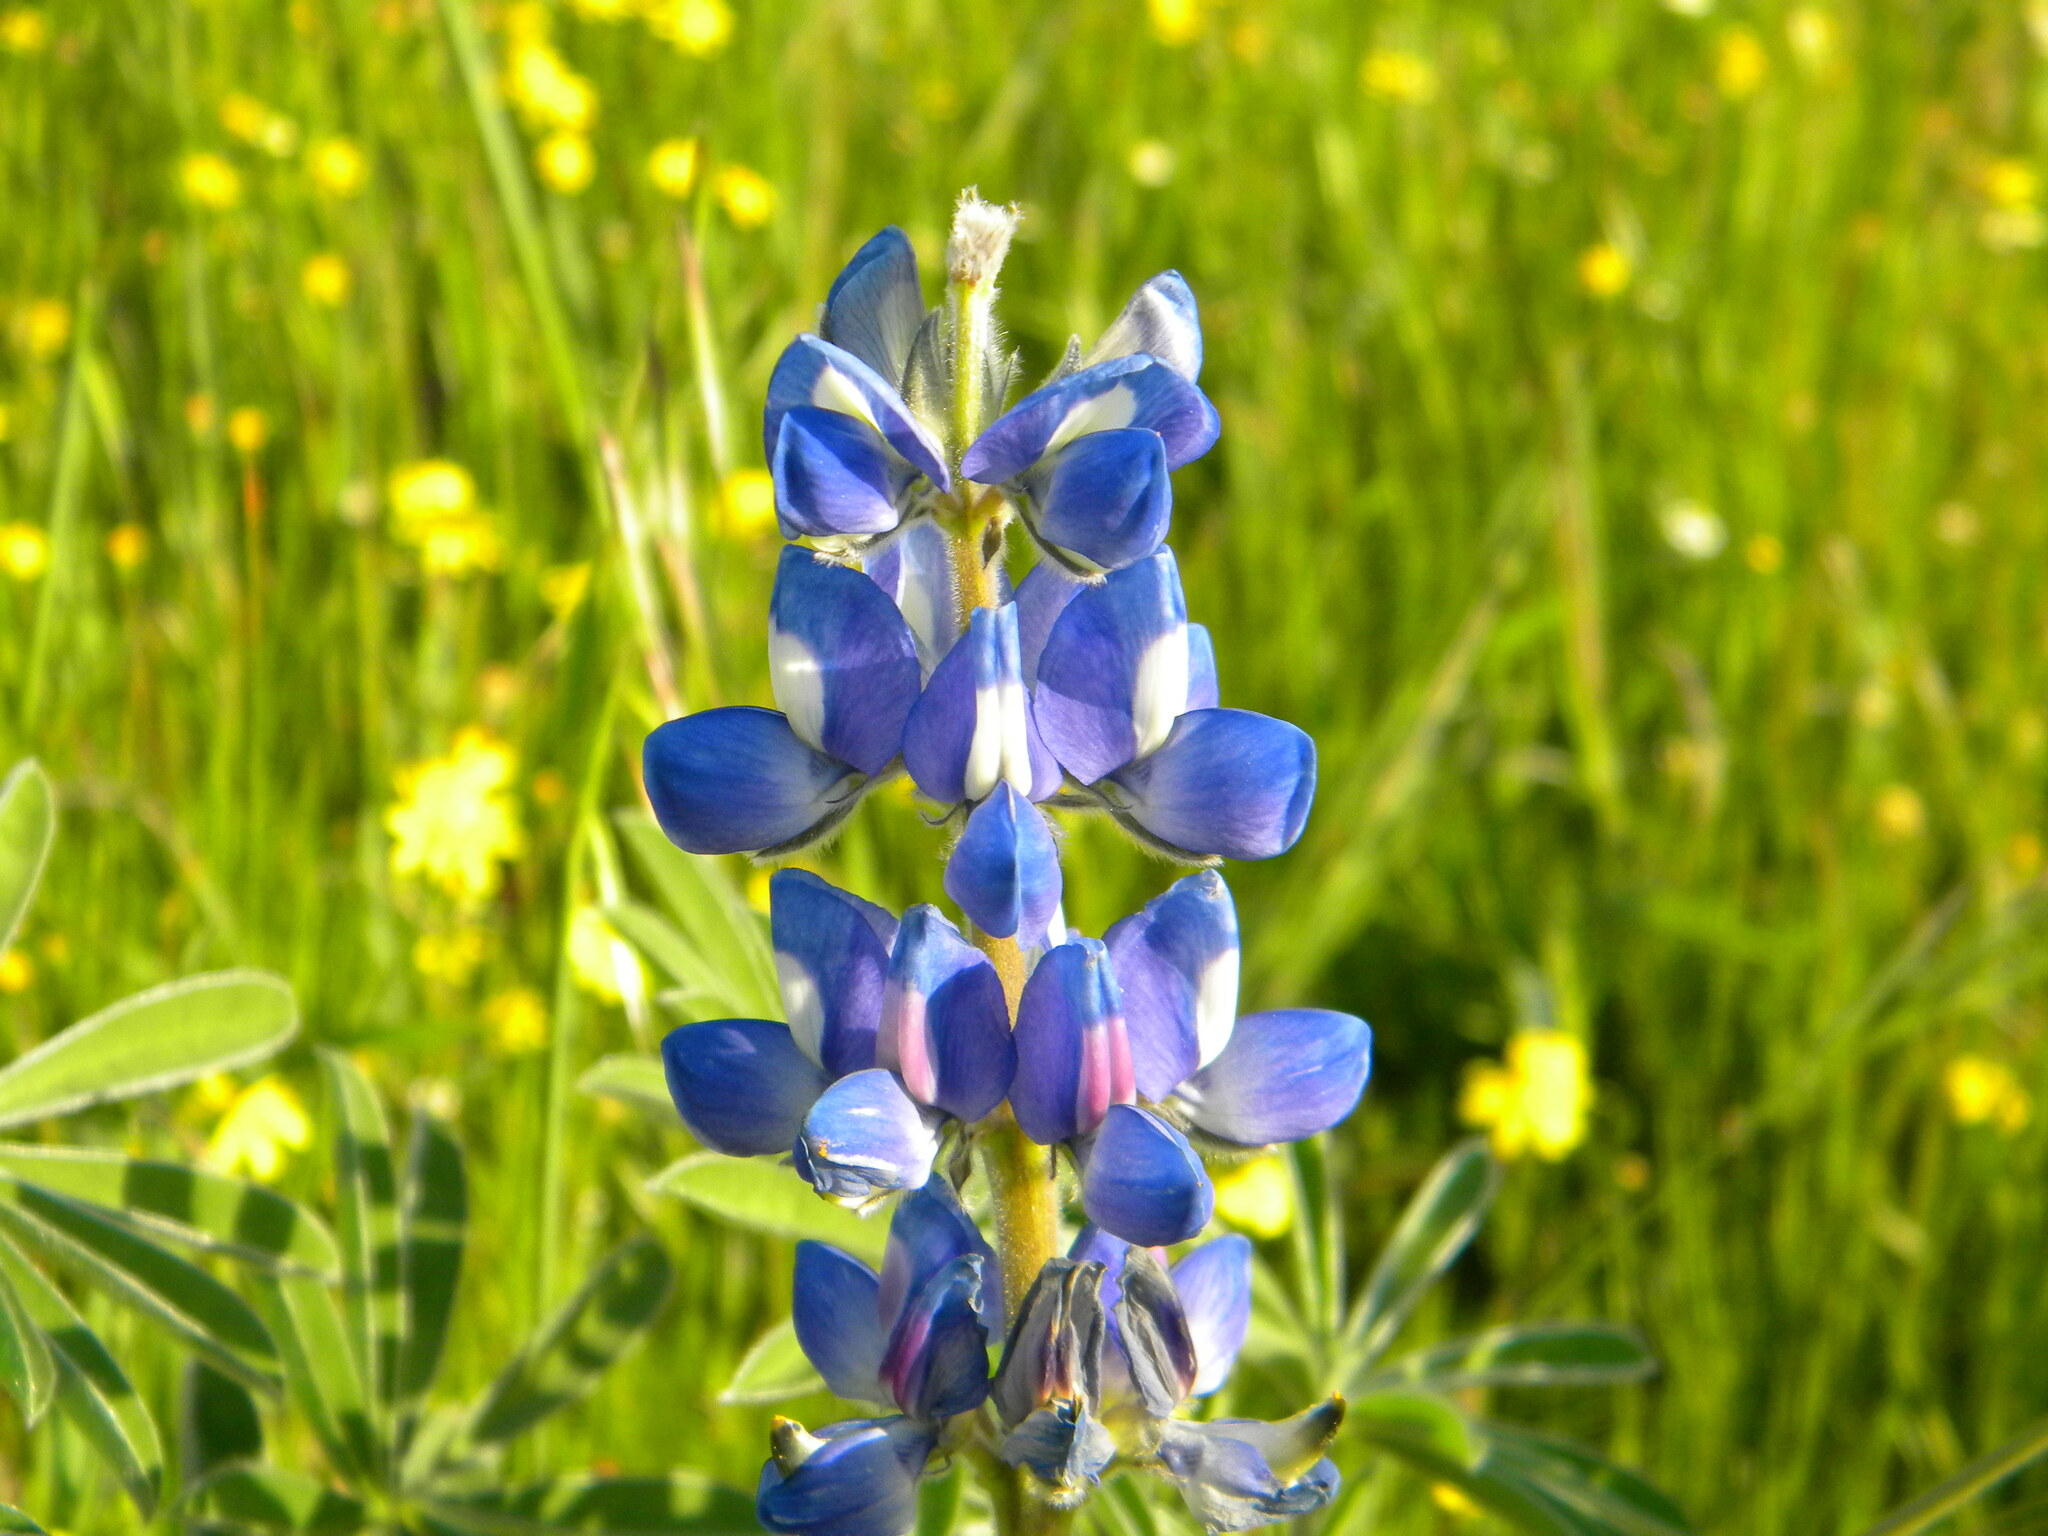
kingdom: Plantae
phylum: Tracheophyta
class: Magnoliopsida
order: Fabales
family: Fabaceae
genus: Lupinus
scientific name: Lupinus cosentinii
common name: Hairy blue lupin
